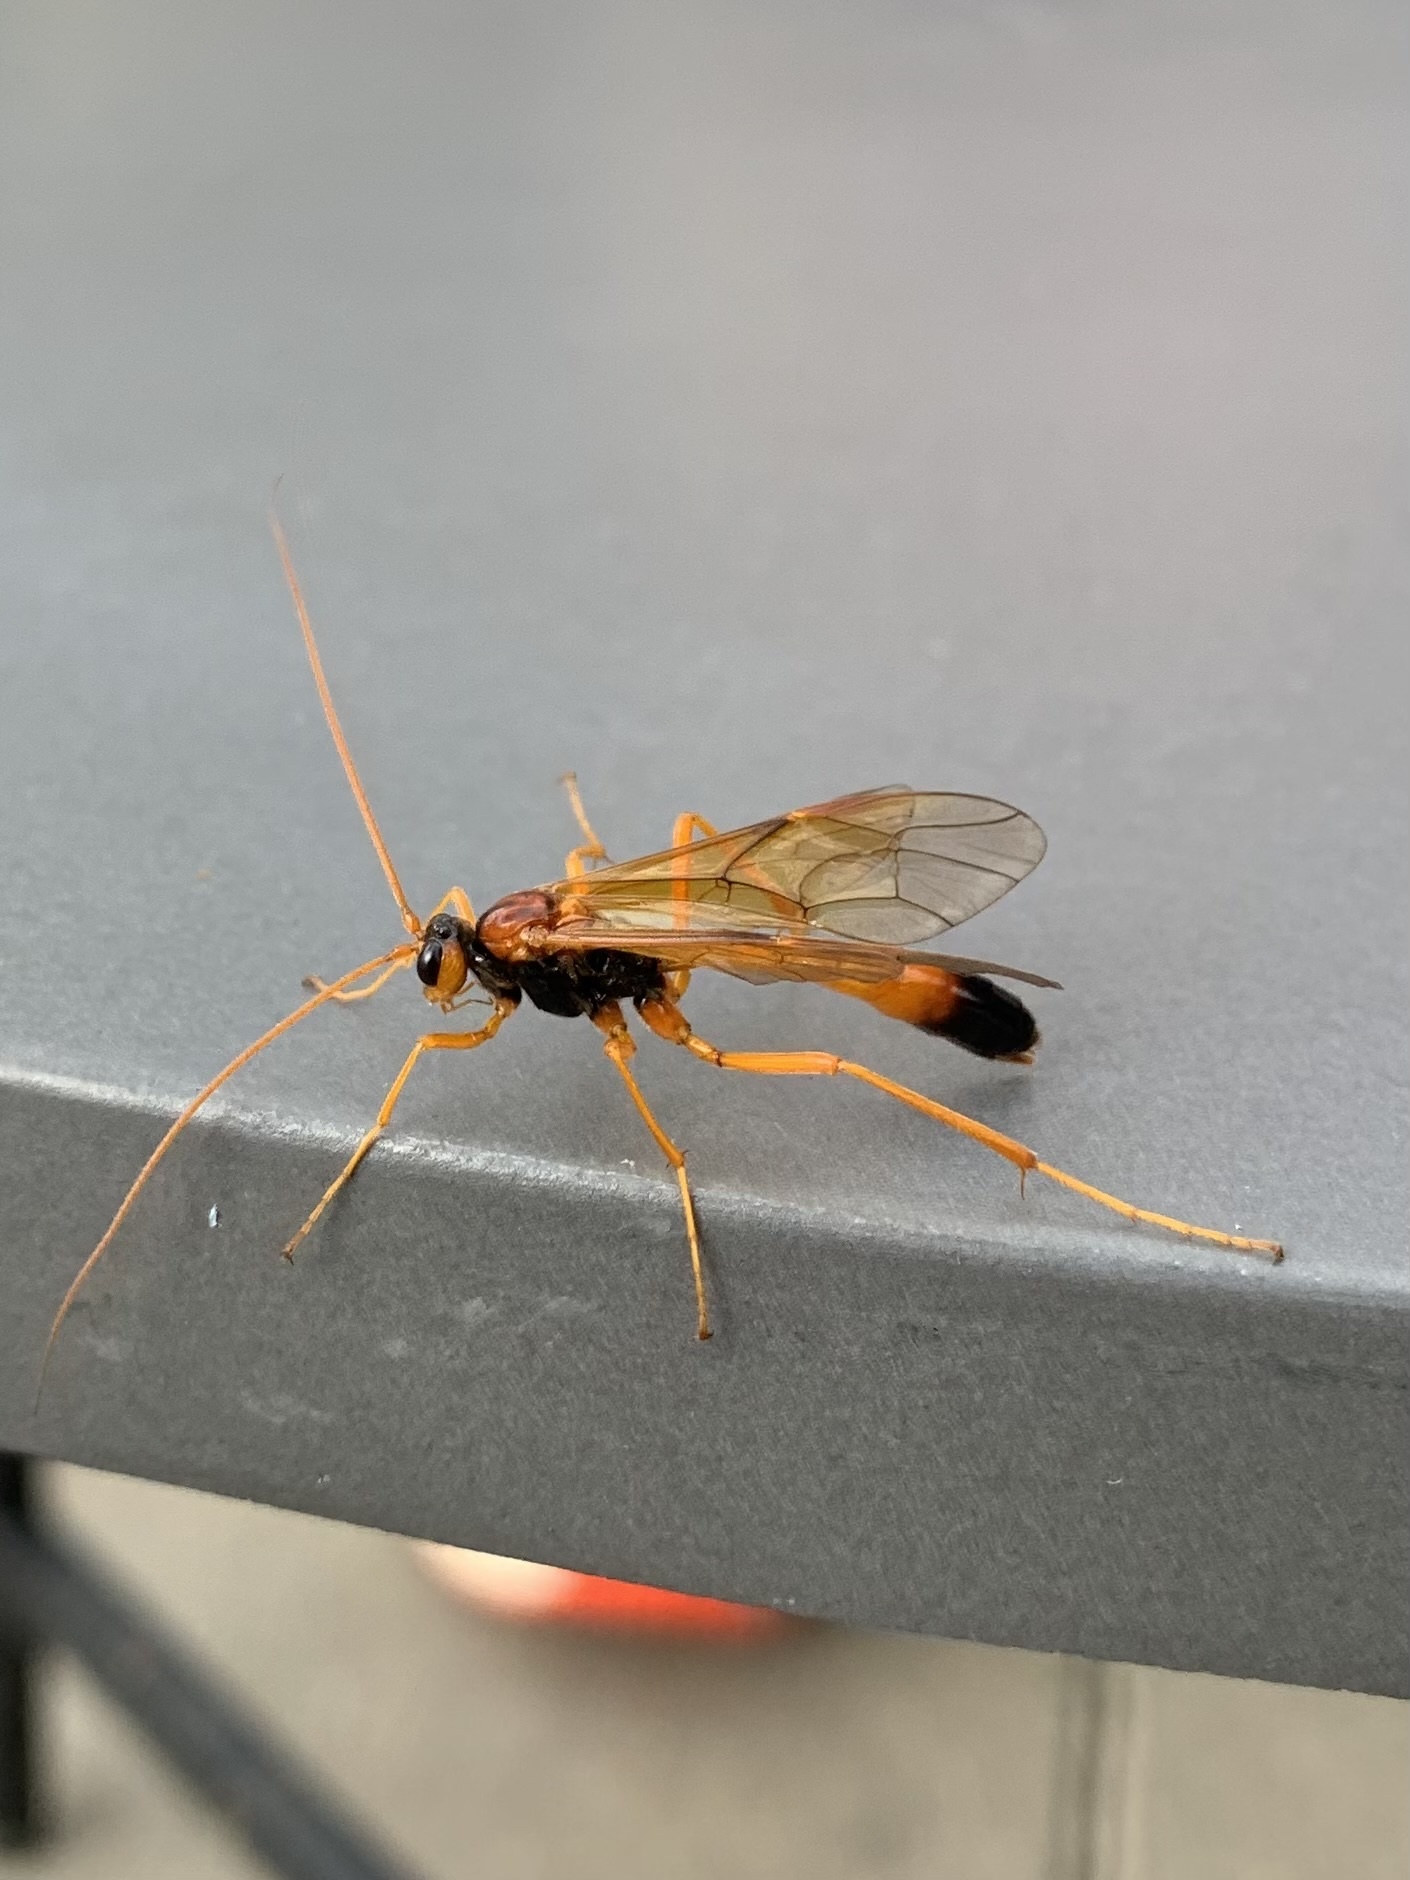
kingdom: Animalia
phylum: Arthropoda
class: Insecta
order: Hymenoptera
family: Ichneumonidae
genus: Opheltes
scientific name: Opheltes glaucopterus
